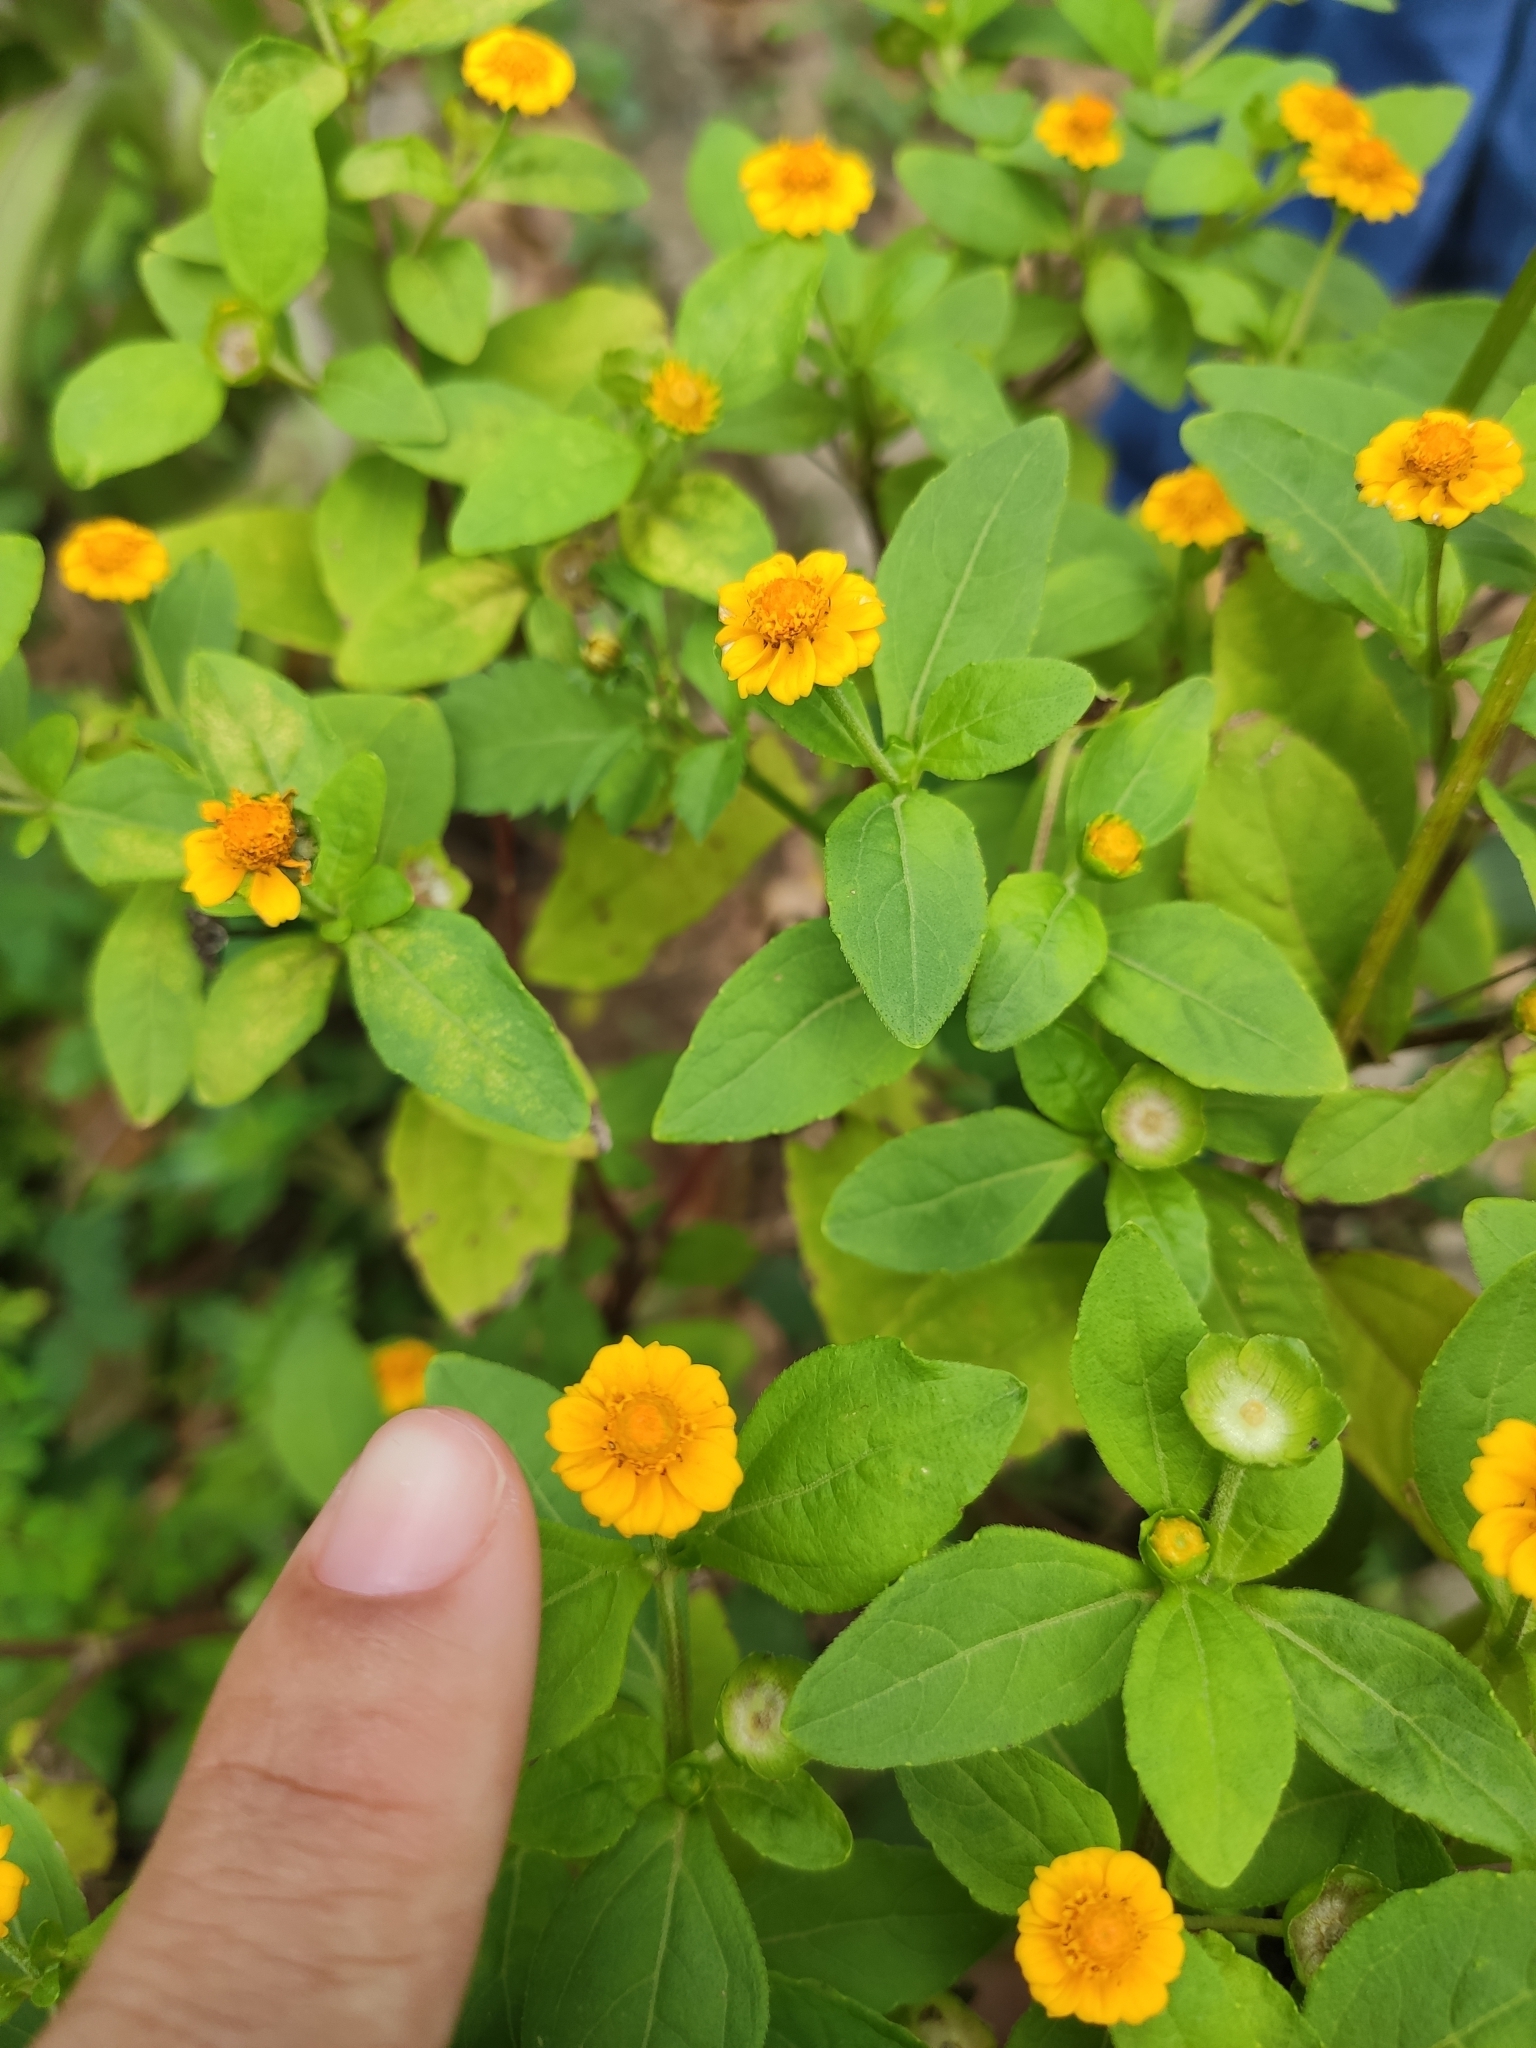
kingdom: Plantae
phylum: Tracheophyta
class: Magnoliopsida
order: Asterales
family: Asteraceae
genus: Melampodium
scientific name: Melampodium divaricatum
